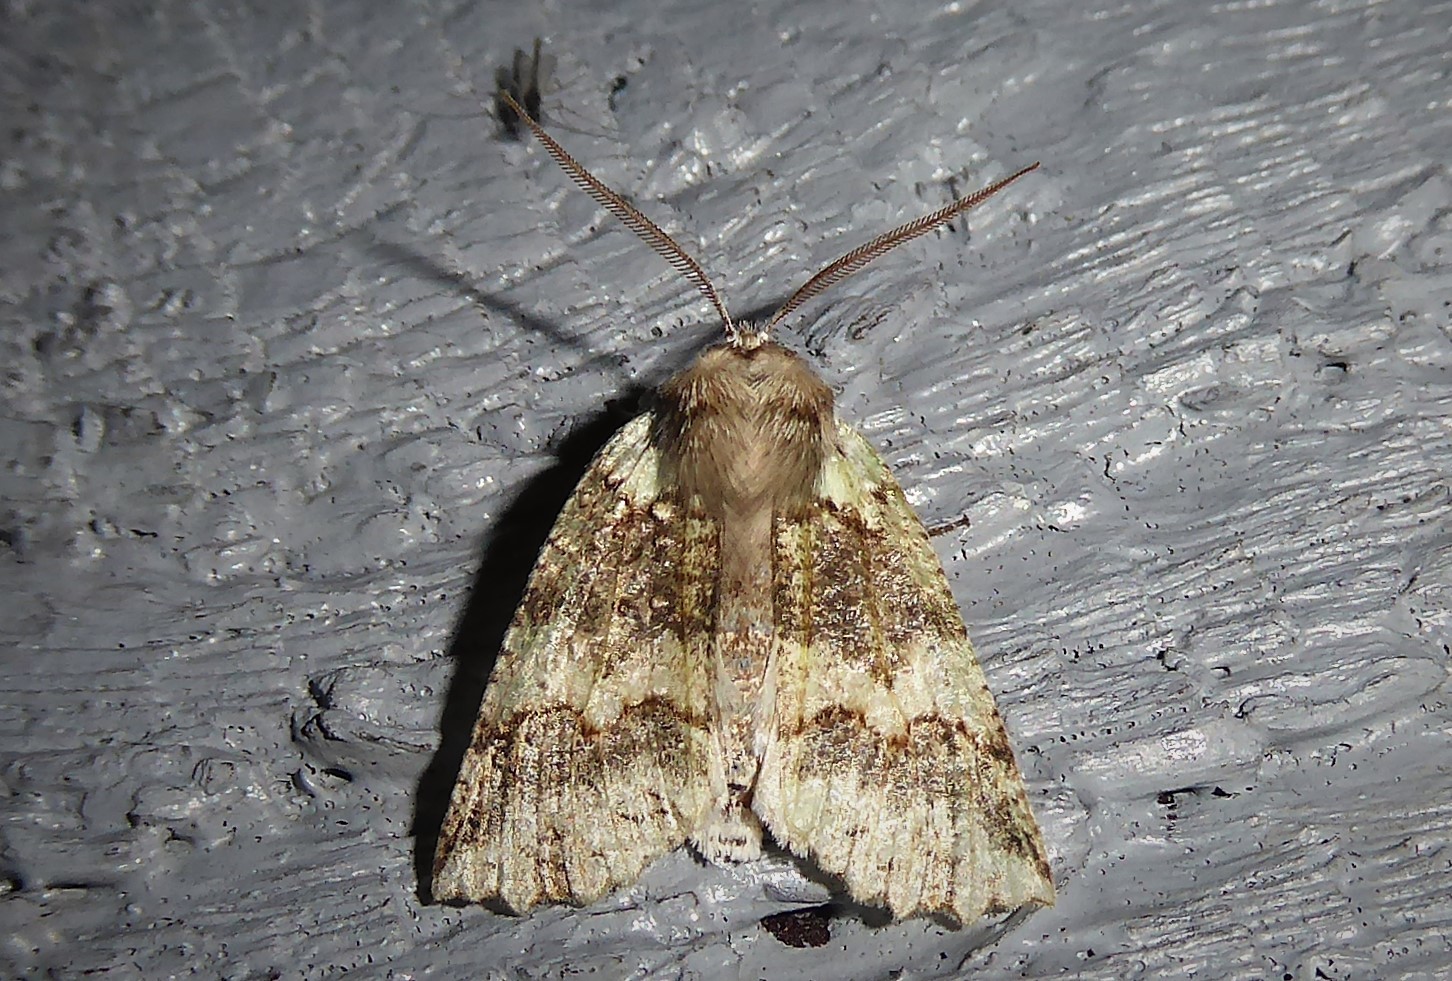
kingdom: Animalia
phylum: Arthropoda
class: Insecta
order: Lepidoptera
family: Geometridae
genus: Declana
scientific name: Declana floccosa
